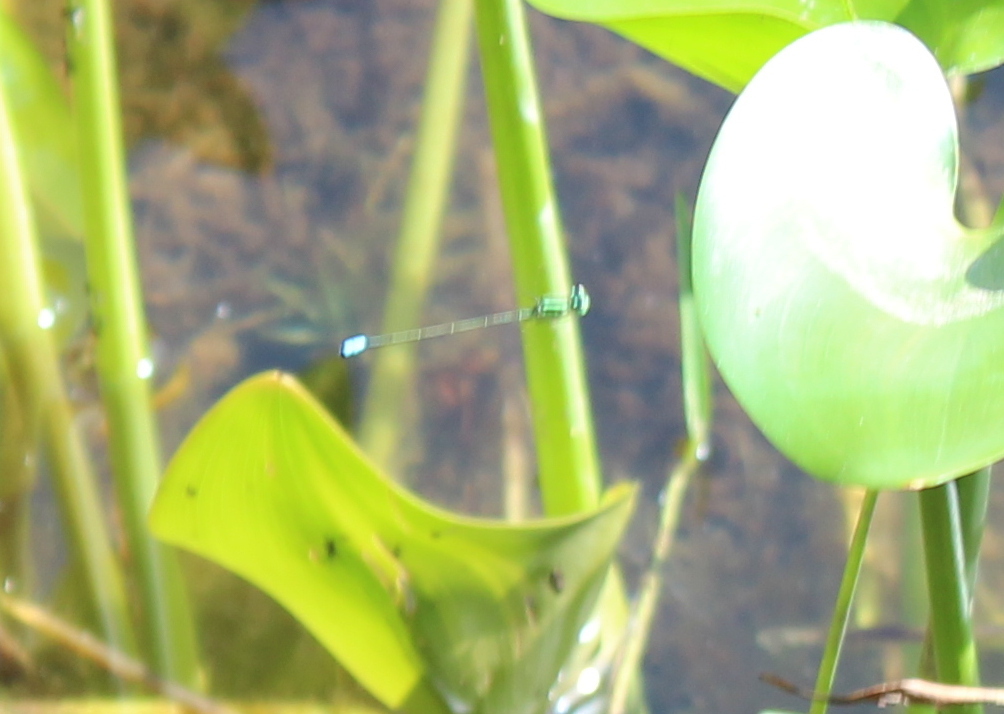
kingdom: Animalia
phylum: Arthropoda
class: Insecta
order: Odonata
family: Coenagrionidae
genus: Ischnura
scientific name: Ischnura verticalis
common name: Eastern forktail
